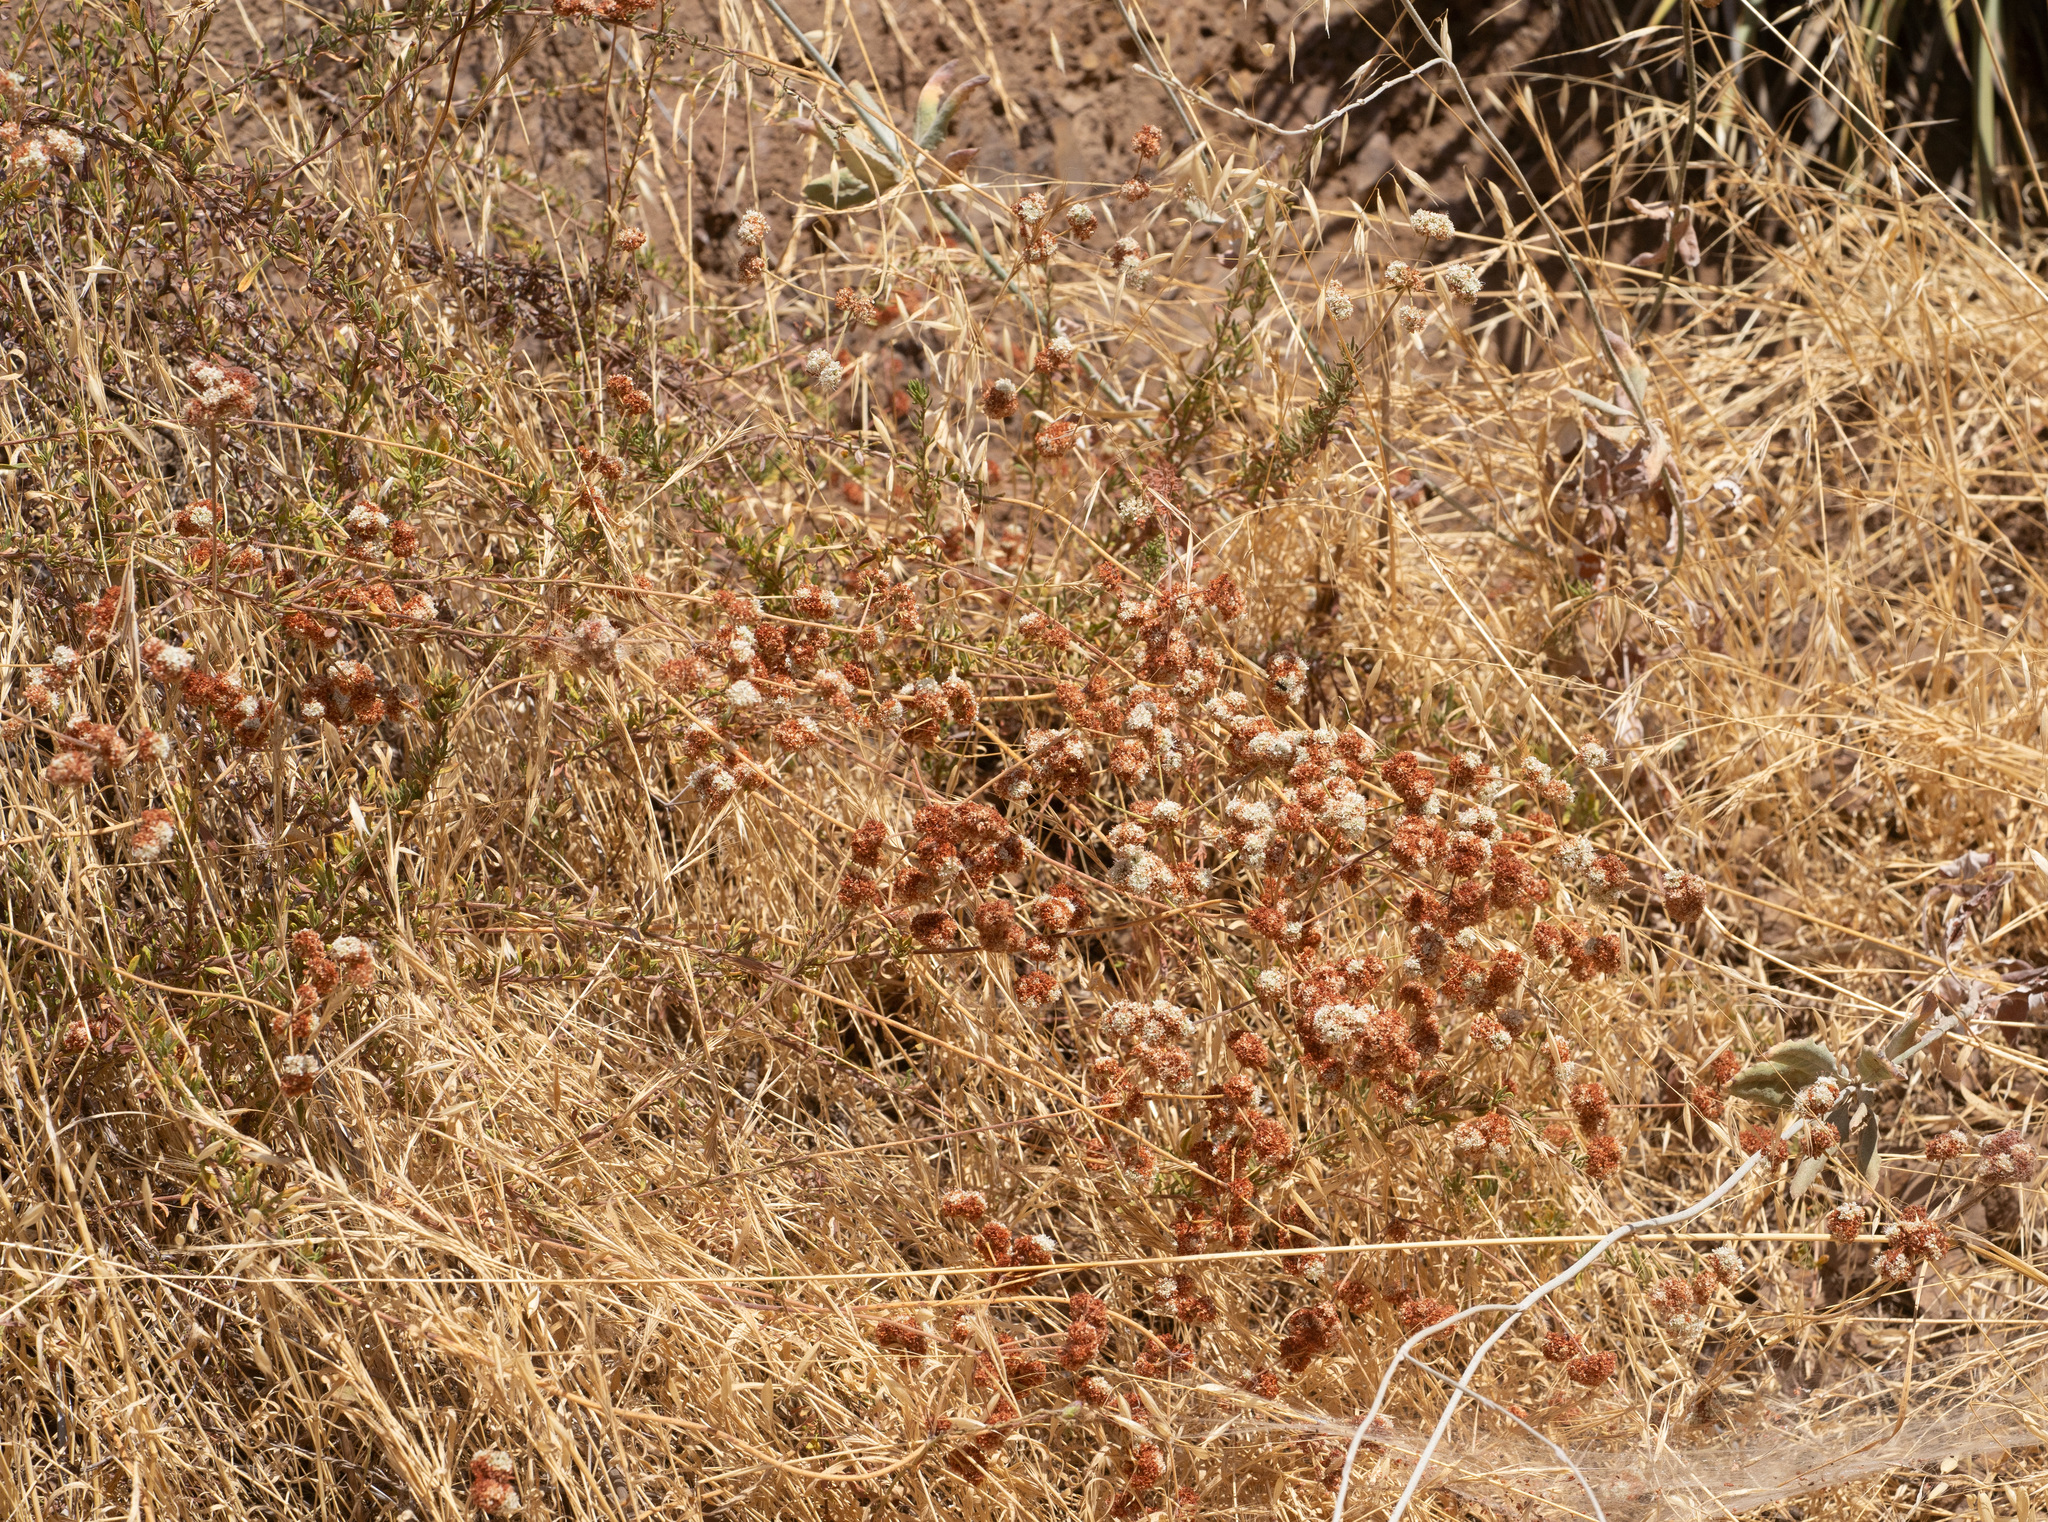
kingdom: Plantae
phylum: Tracheophyta
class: Magnoliopsida
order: Caryophyllales
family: Polygonaceae
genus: Eriogonum
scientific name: Eriogonum fasciculatum
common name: California wild buckwheat
